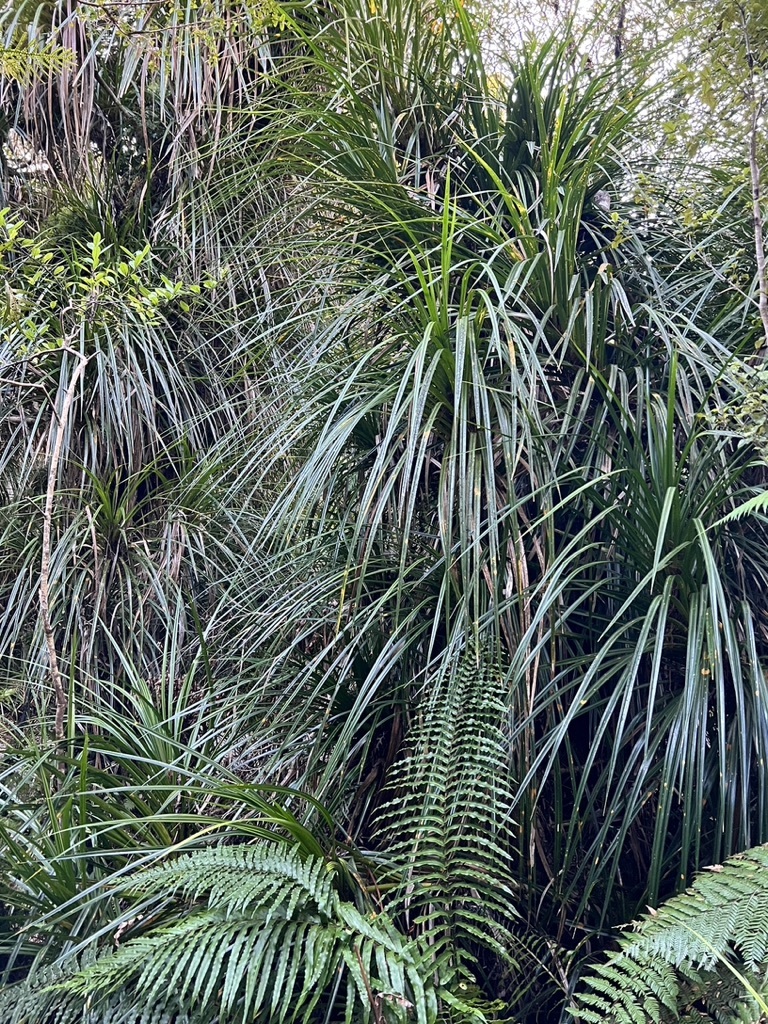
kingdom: Plantae
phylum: Tracheophyta
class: Liliopsida
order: Pandanales
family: Pandanaceae
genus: Freycinetia
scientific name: Freycinetia banksii
